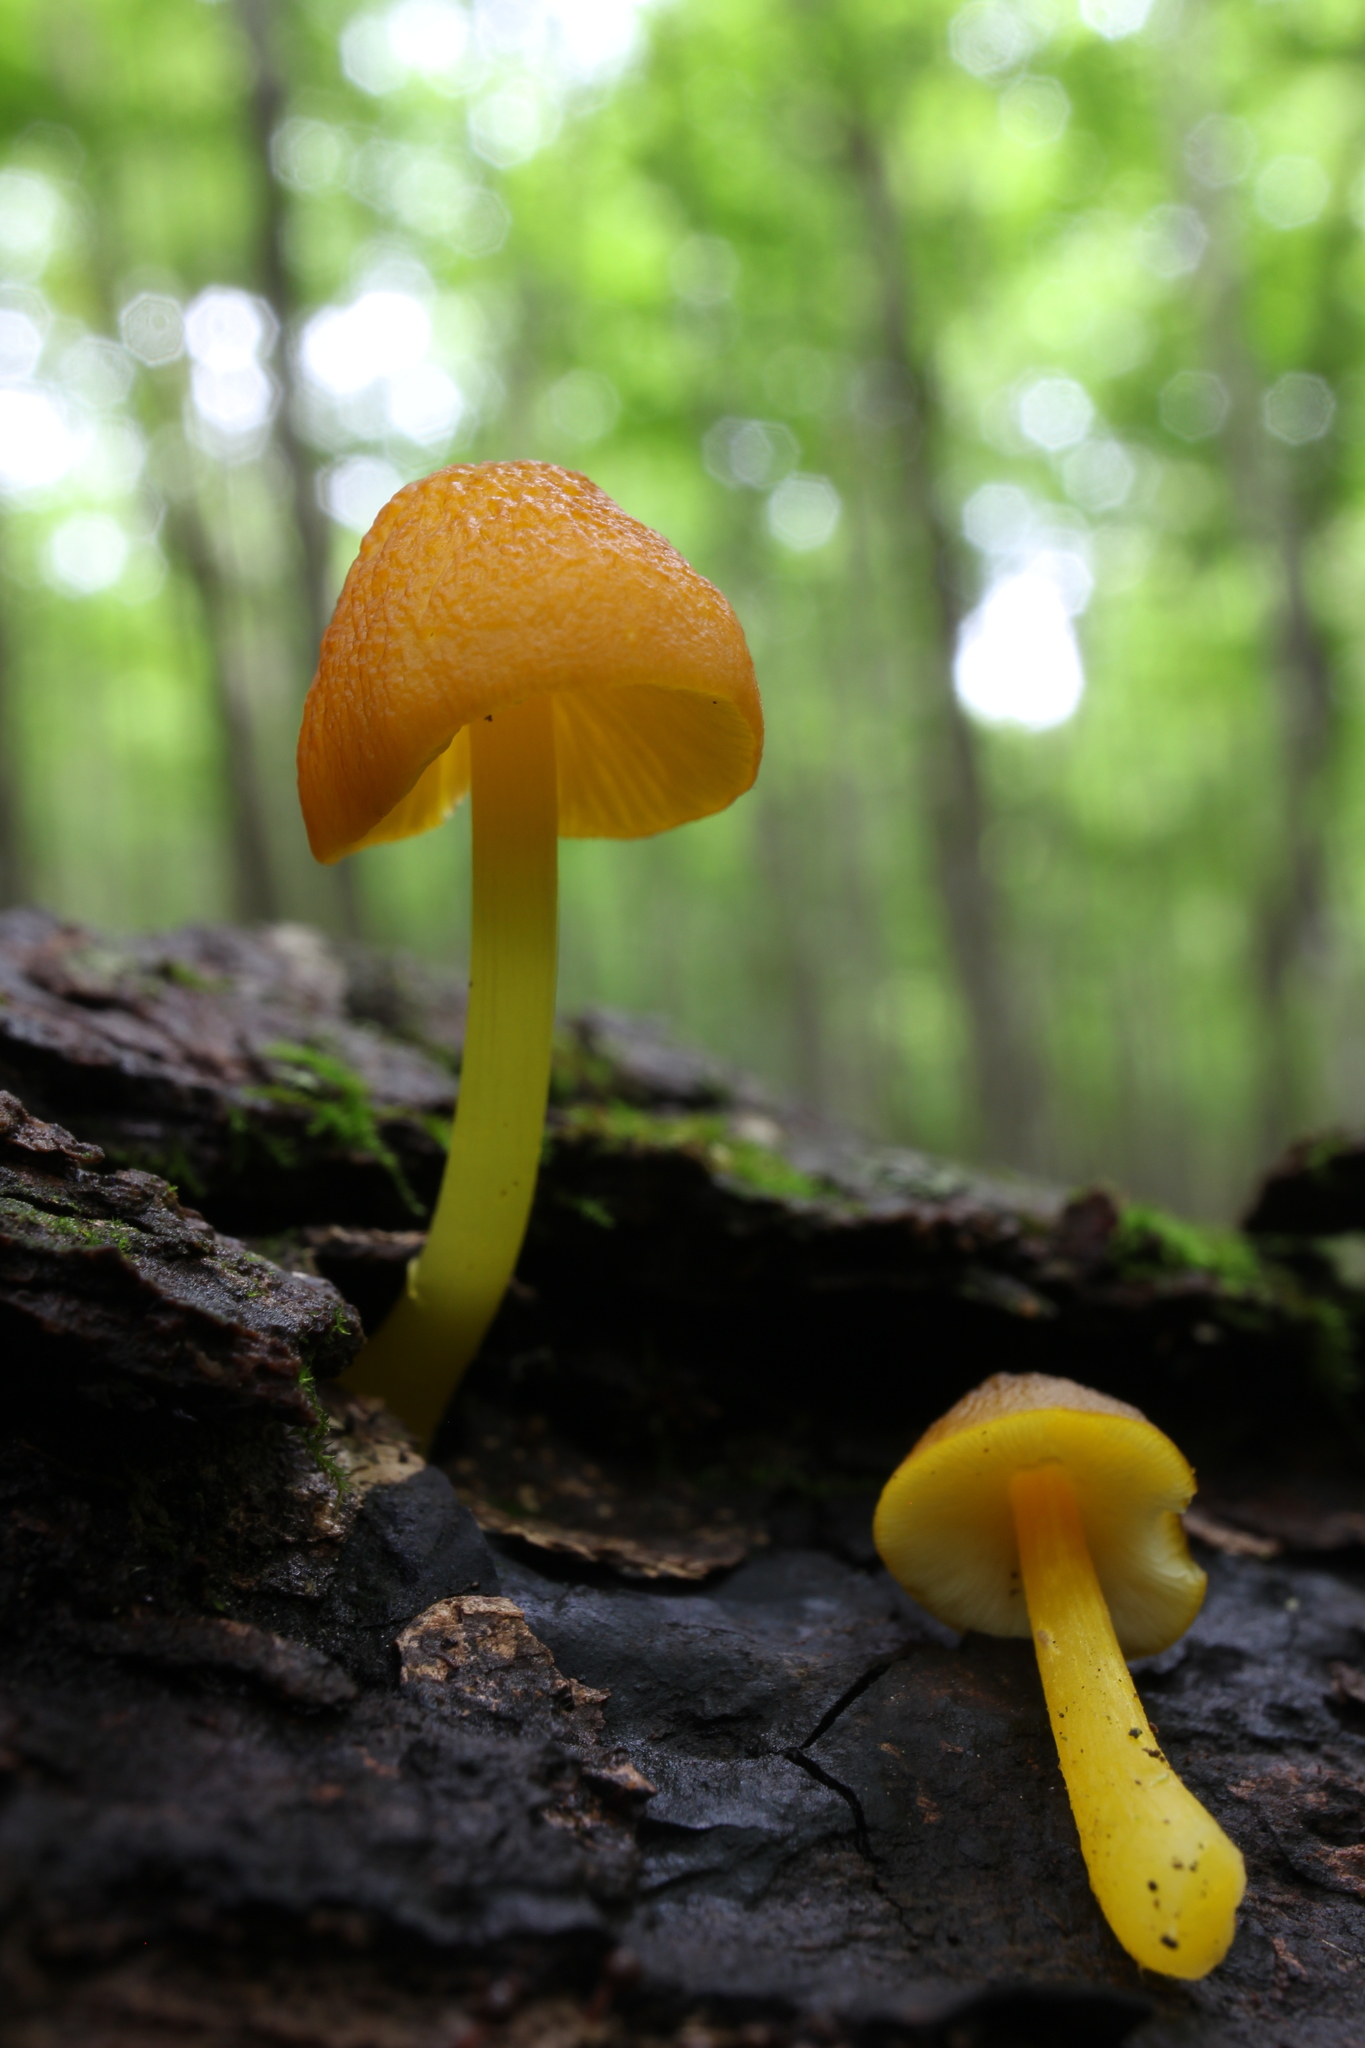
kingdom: Fungi
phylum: Basidiomycota
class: Agaricomycetes
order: Agaricales
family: Pluteaceae
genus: Pluteus
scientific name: Pluteus chrysophlebius
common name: Yellow deer mushroom
